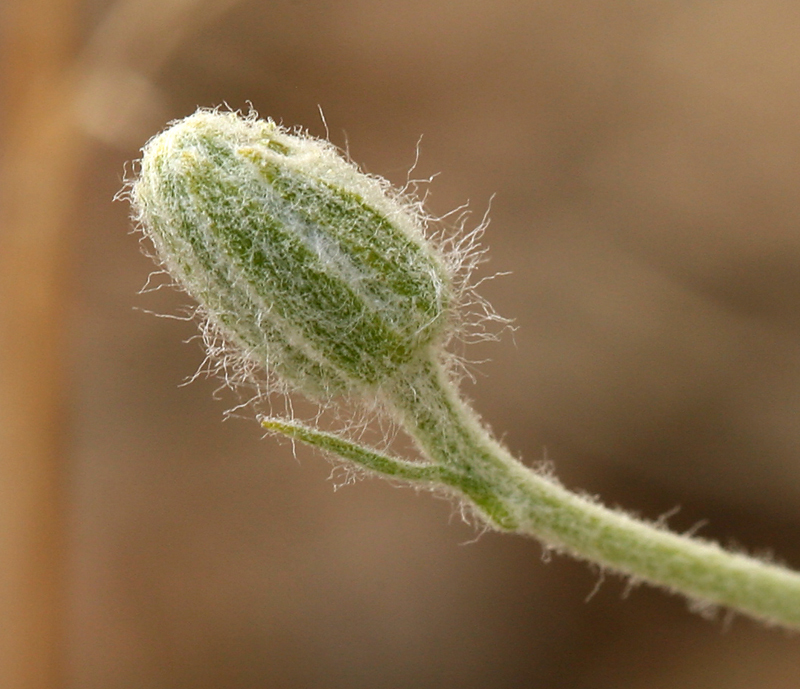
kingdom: Plantae
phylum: Tracheophyta
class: Magnoliopsida
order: Asterales
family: Asteraceae
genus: Psilostrophe
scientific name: Psilostrophe cooperi
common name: White-stem paper-flower
